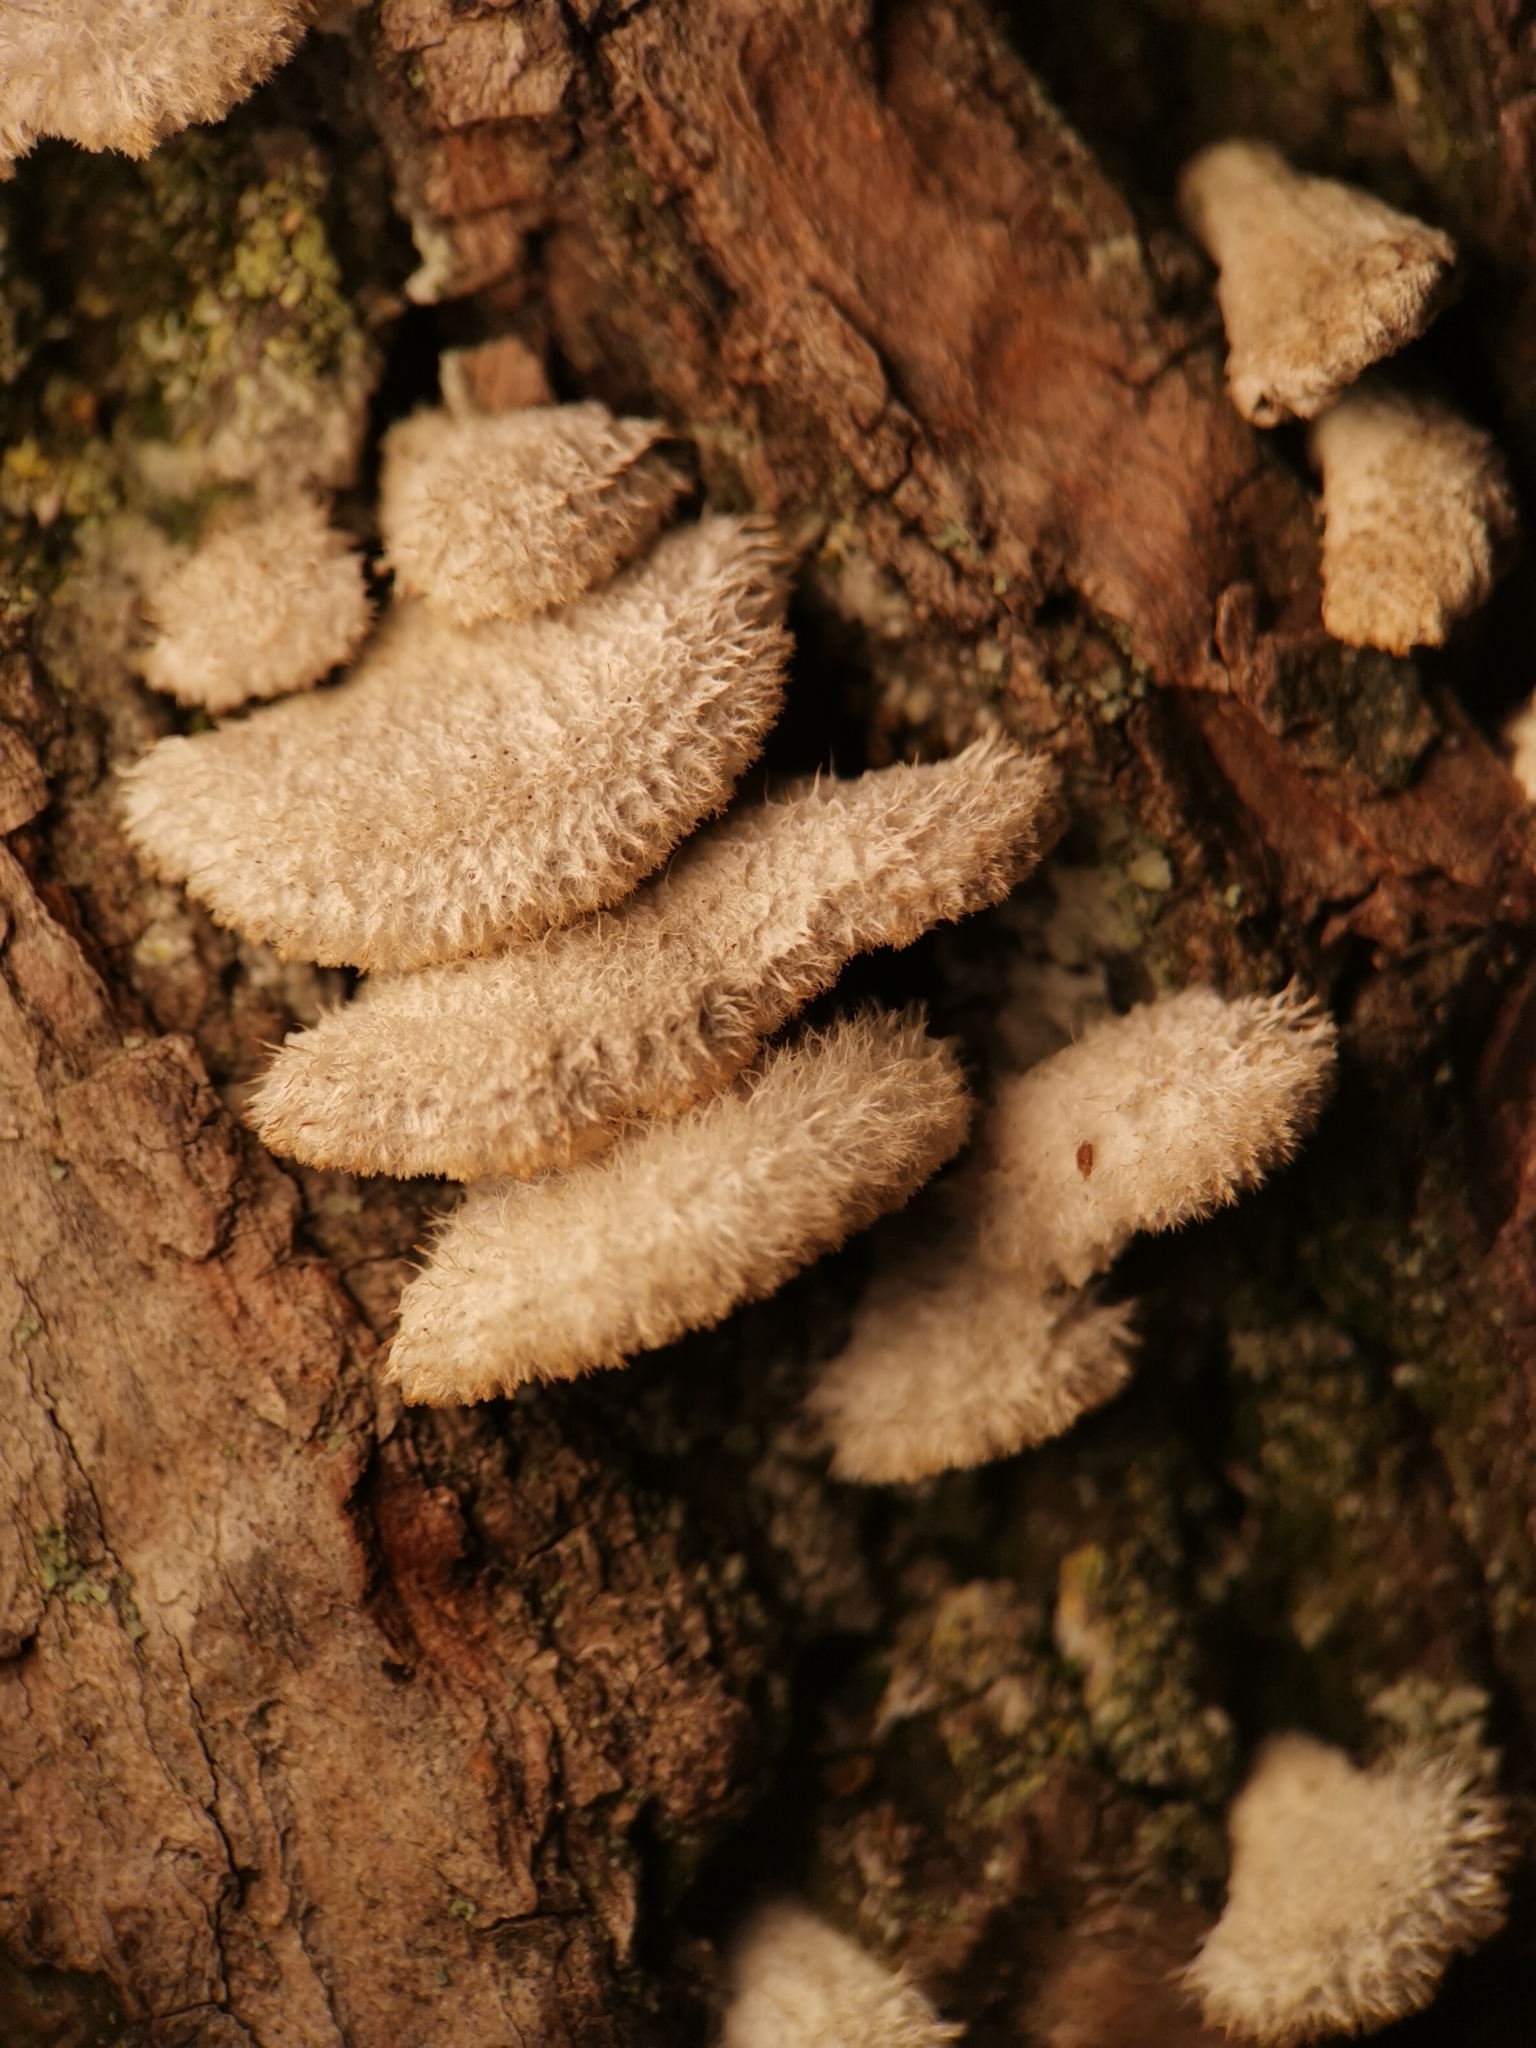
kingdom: Fungi
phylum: Basidiomycota
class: Agaricomycetes
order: Agaricales
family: Schizophyllaceae
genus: Schizophyllum
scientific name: Schizophyllum commune
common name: Common porecrust
